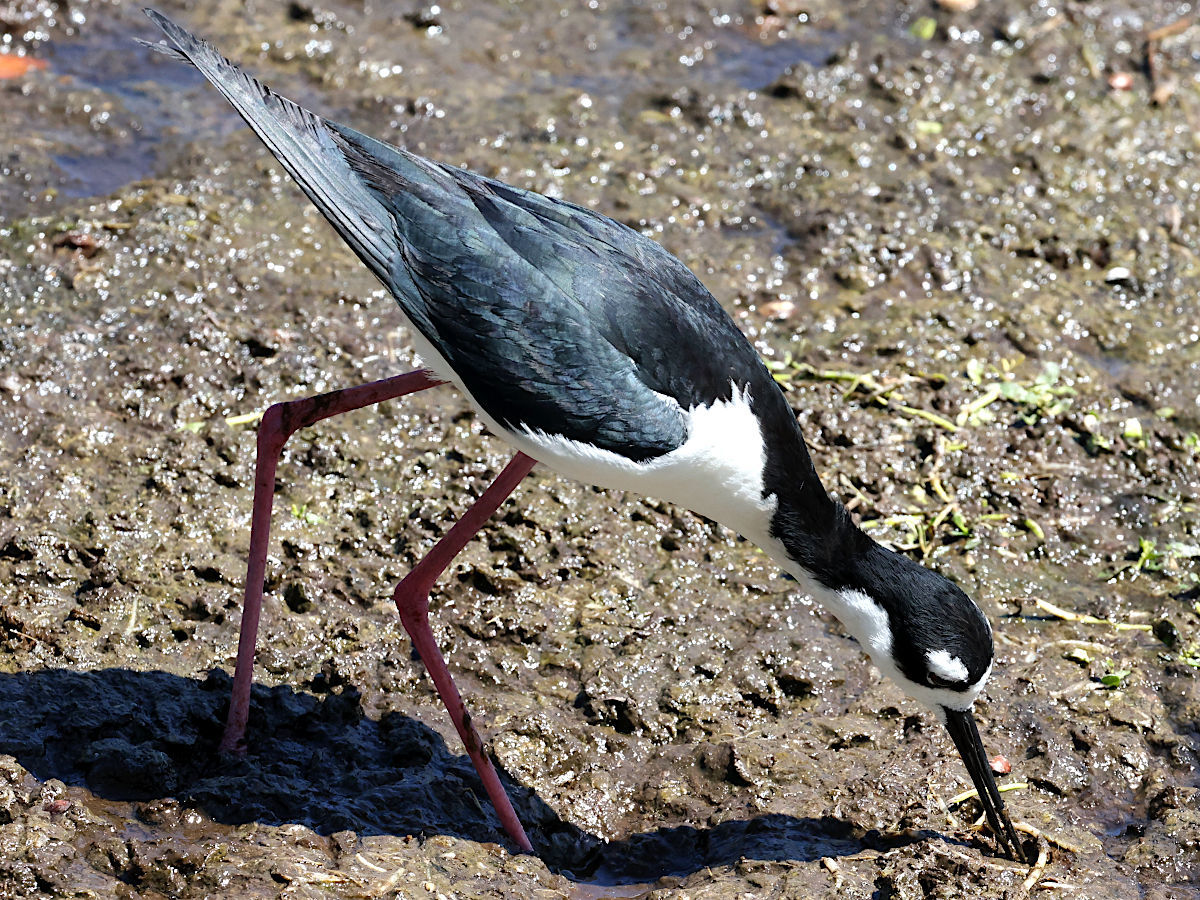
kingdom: Animalia
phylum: Chordata
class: Aves
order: Charadriiformes
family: Recurvirostridae
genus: Himantopus
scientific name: Himantopus mexicanus
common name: Black-necked stilt
